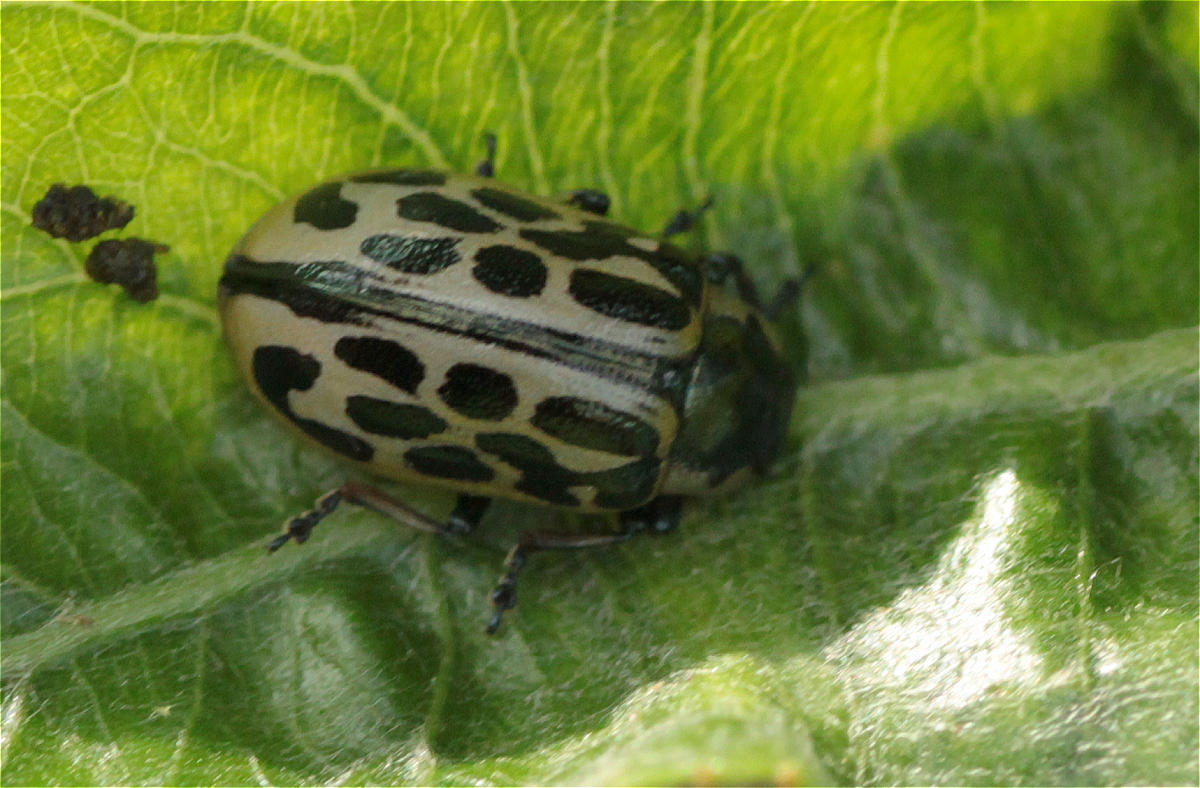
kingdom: Animalia
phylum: Arthropoda
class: Insecta
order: Coleoptera
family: Chrysomelidae
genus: Chrysomela
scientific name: Chrysomela vigintipunctata
